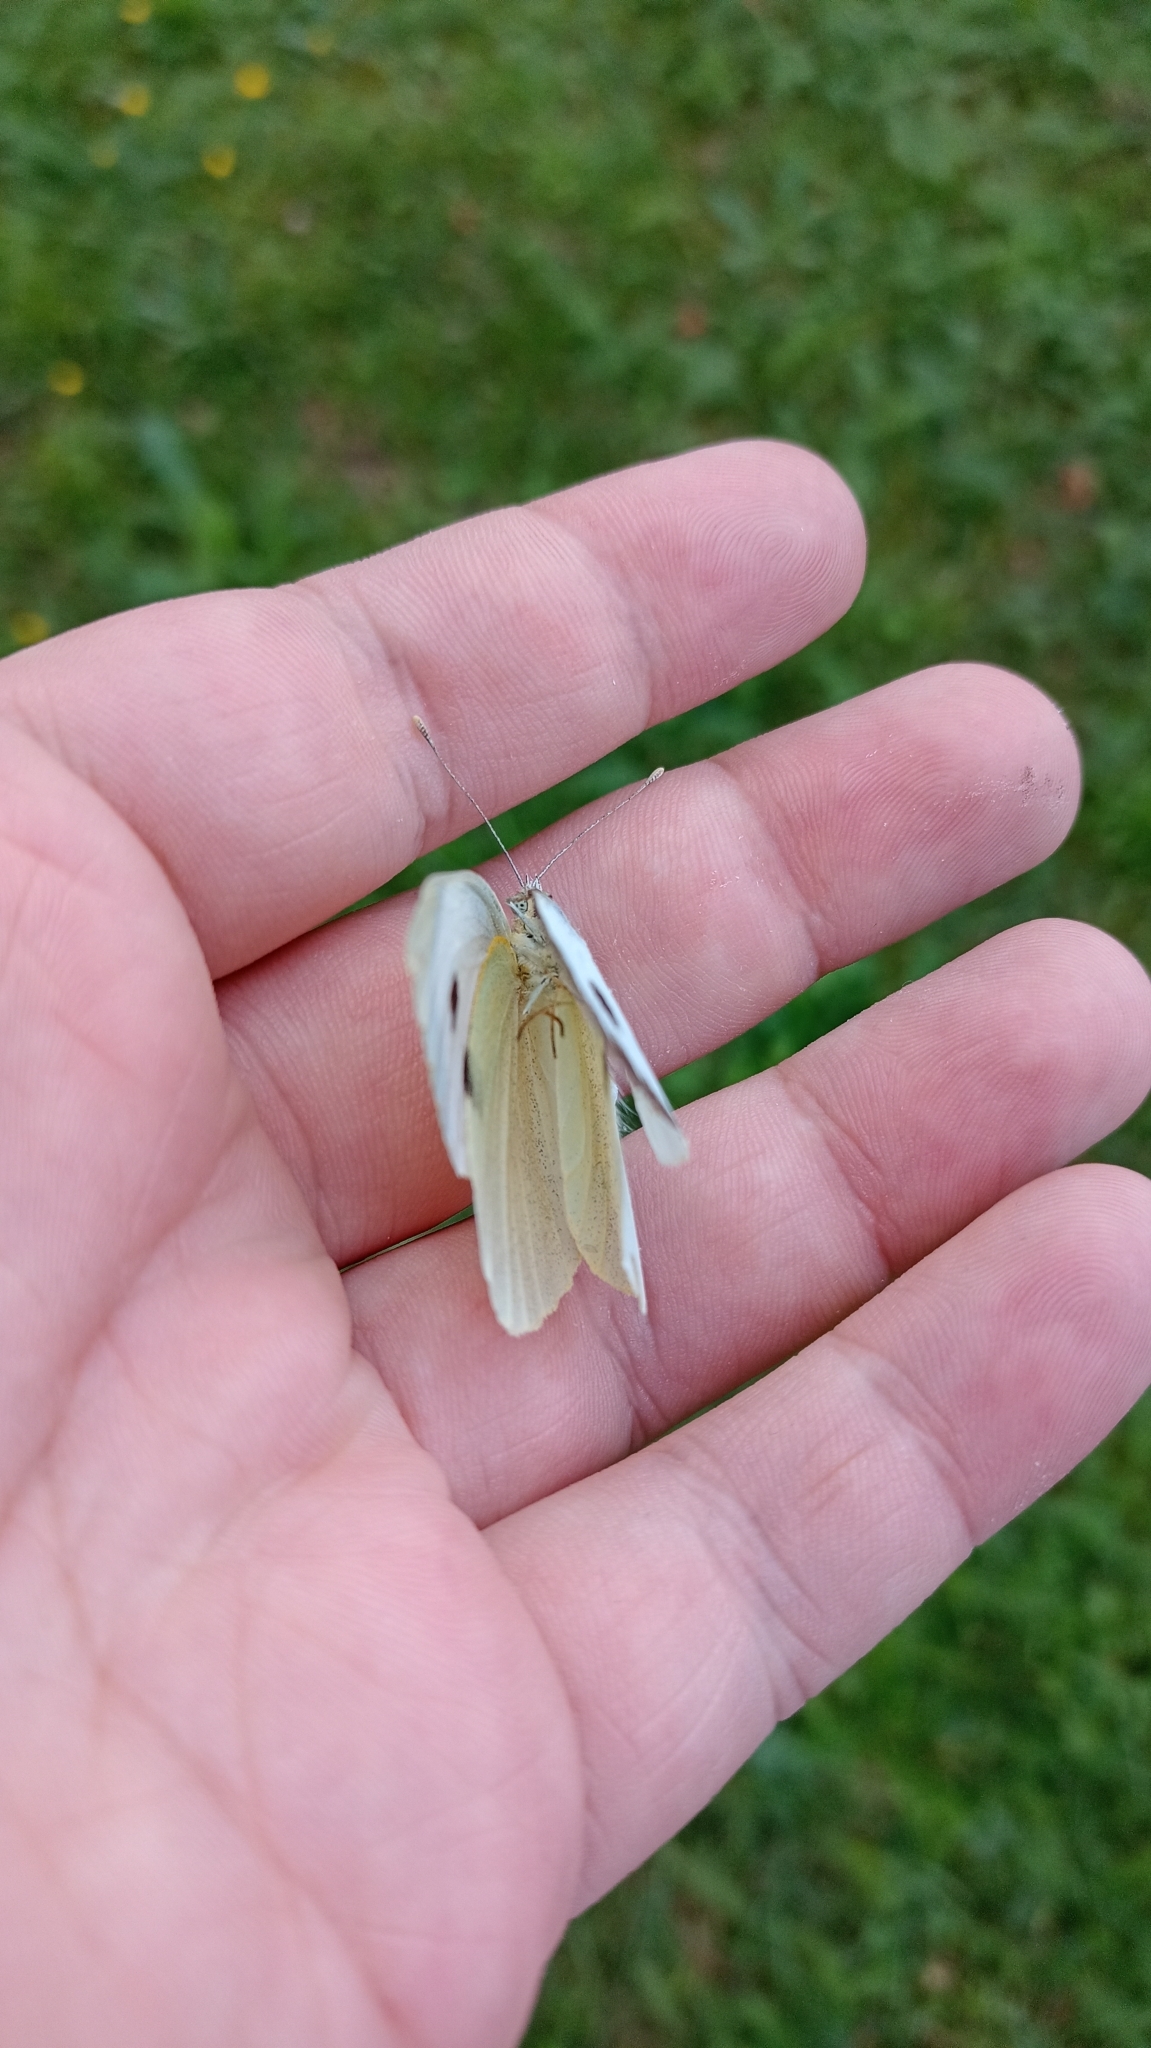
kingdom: Animalia
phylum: Arthropoda
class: Insecta
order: Lepidoptera
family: Pieridae
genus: Pieris
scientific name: Pieris brassicae
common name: Large white
